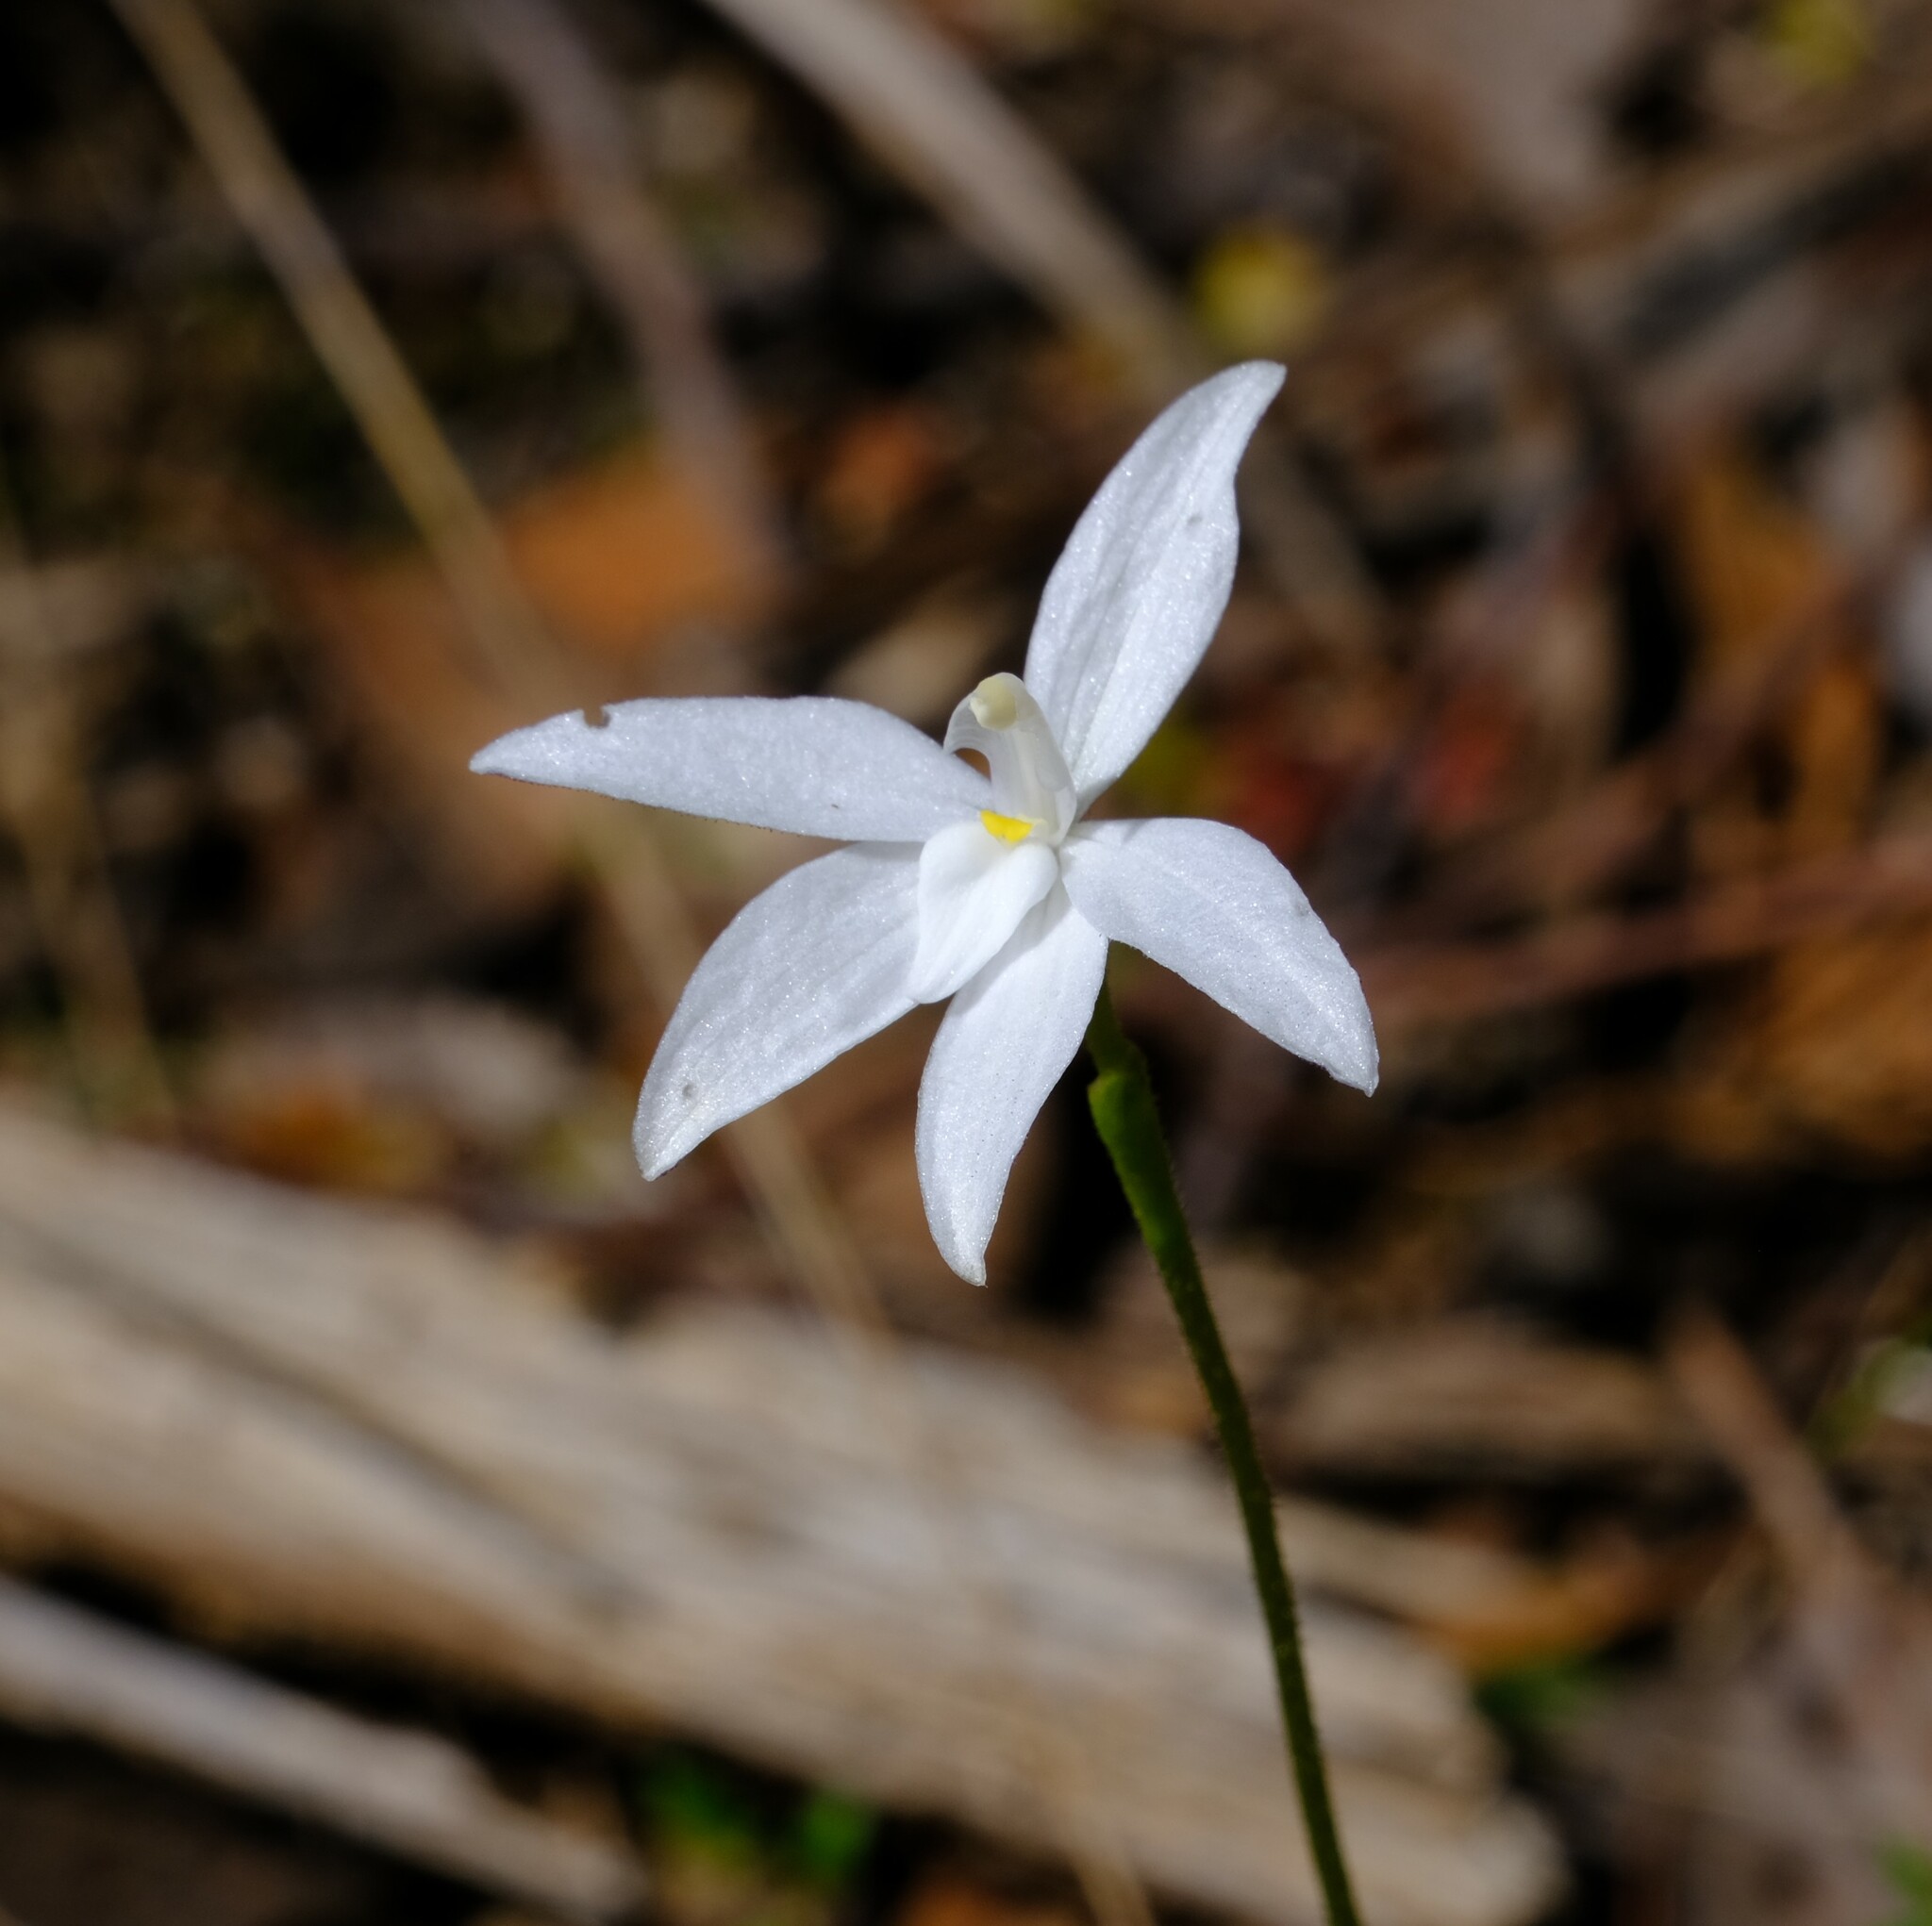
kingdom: Plantae
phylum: Tracheophyta
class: Liliopsida
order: Asparagales
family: Orchidaceae
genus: Caladenia
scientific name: Caladenia major
